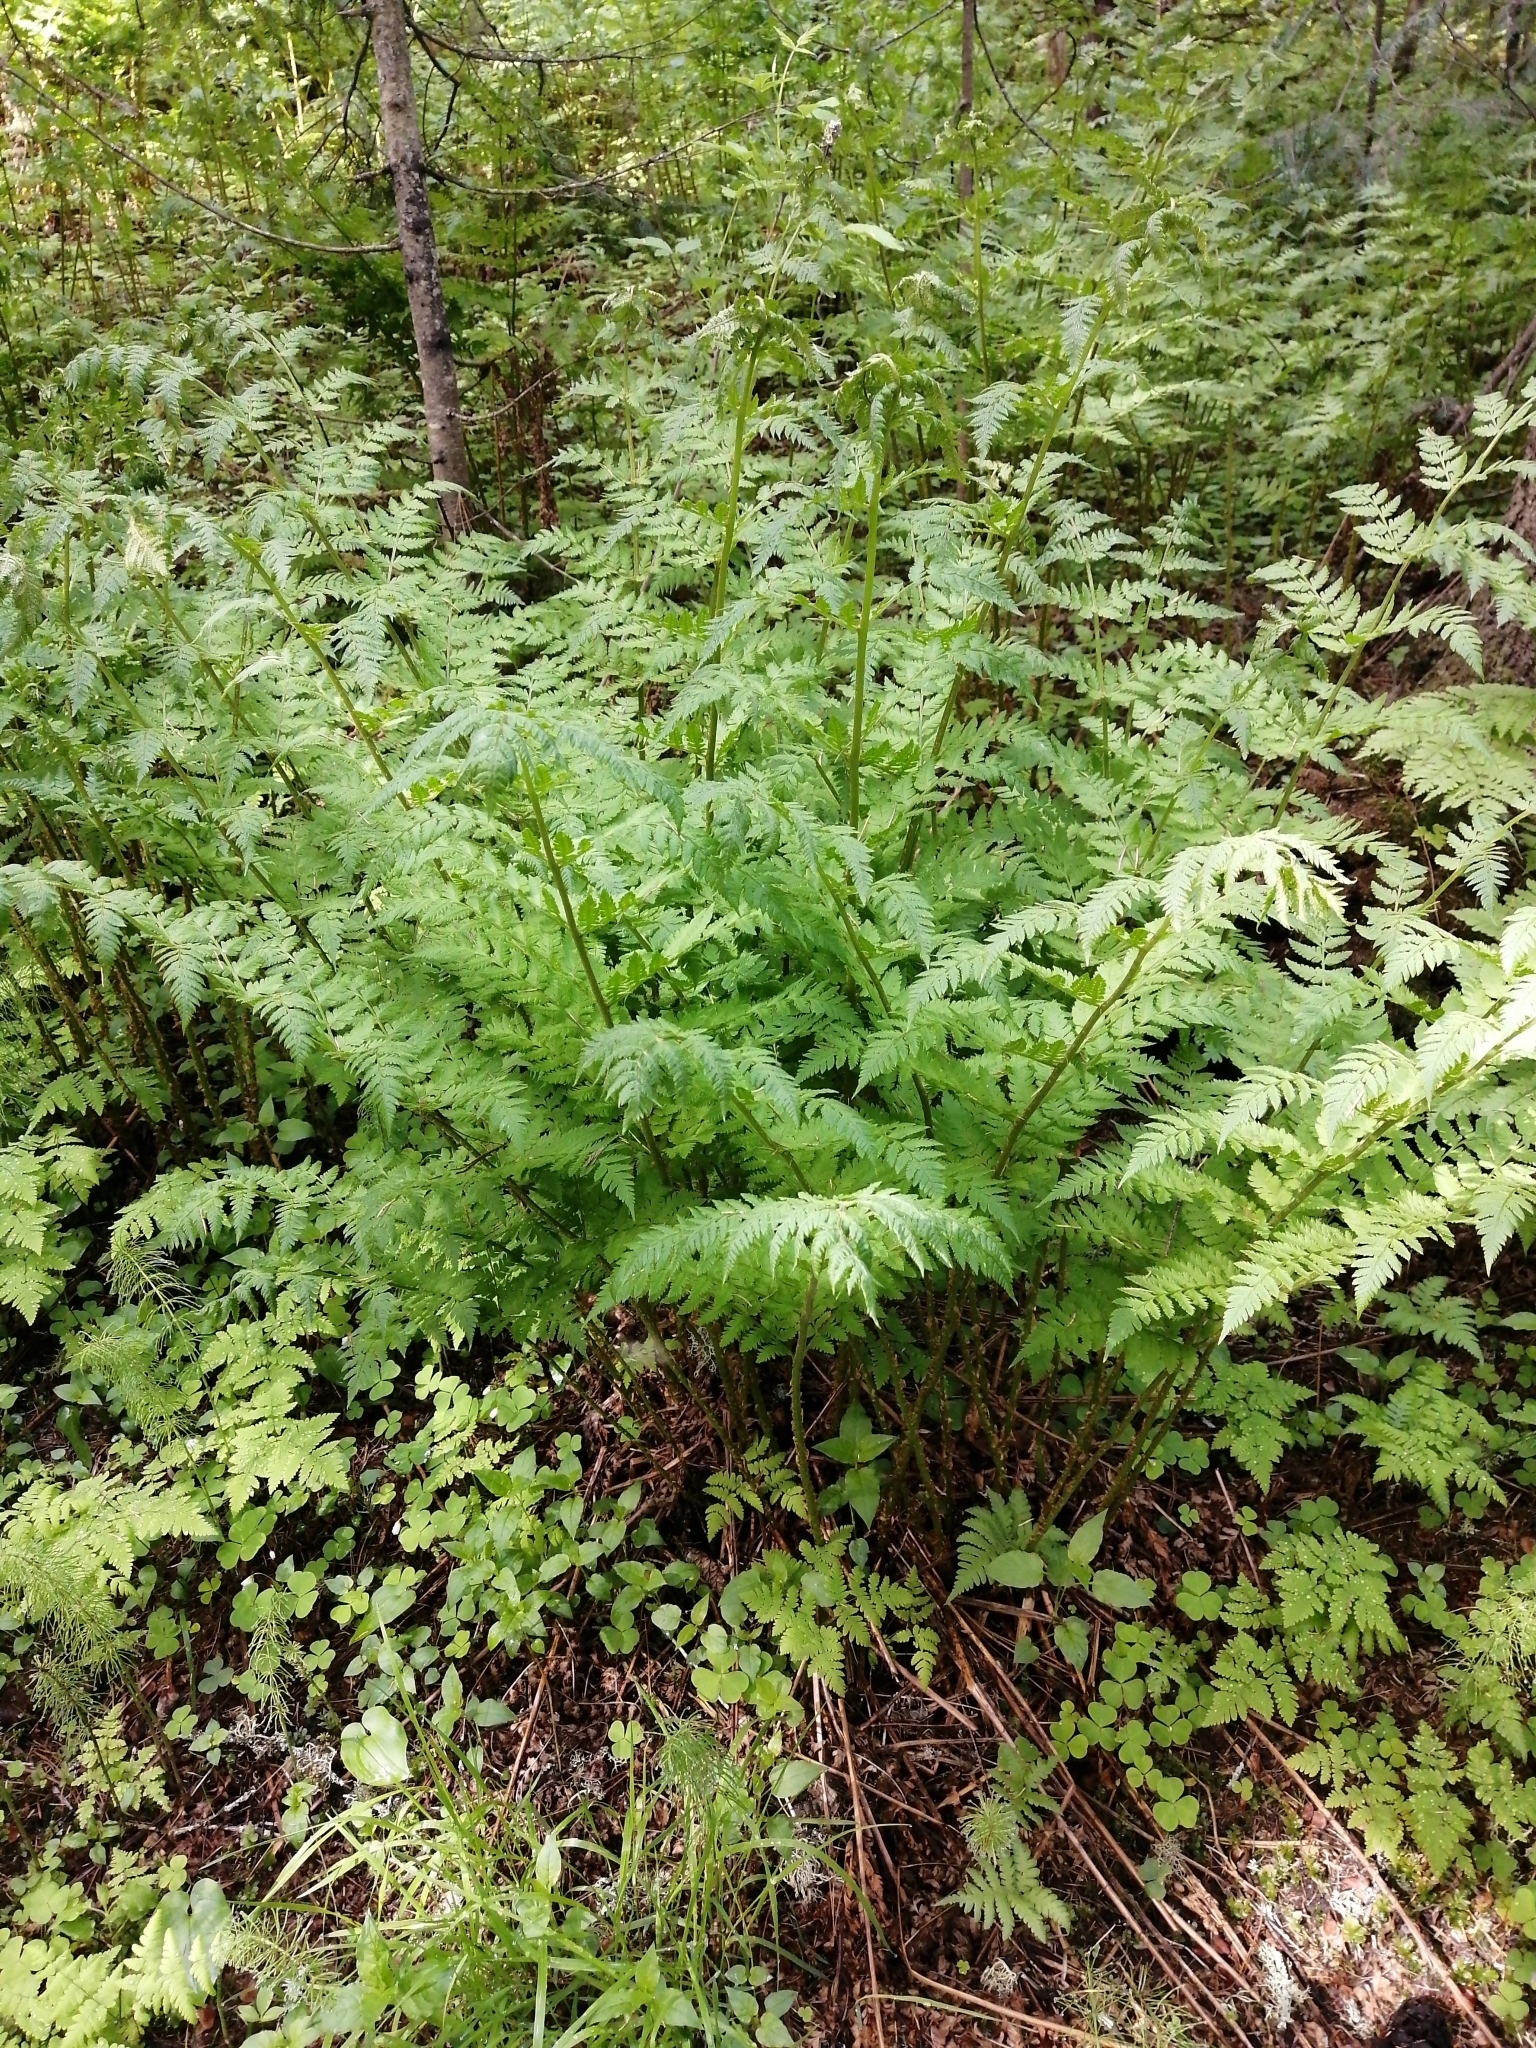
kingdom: Plantae
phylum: Tracheophyta
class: Polypodiopsida
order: Polypodiales
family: Dryopteridaceae
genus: Dryopteris
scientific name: Dryopteris expansa
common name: Northern buckler fern
